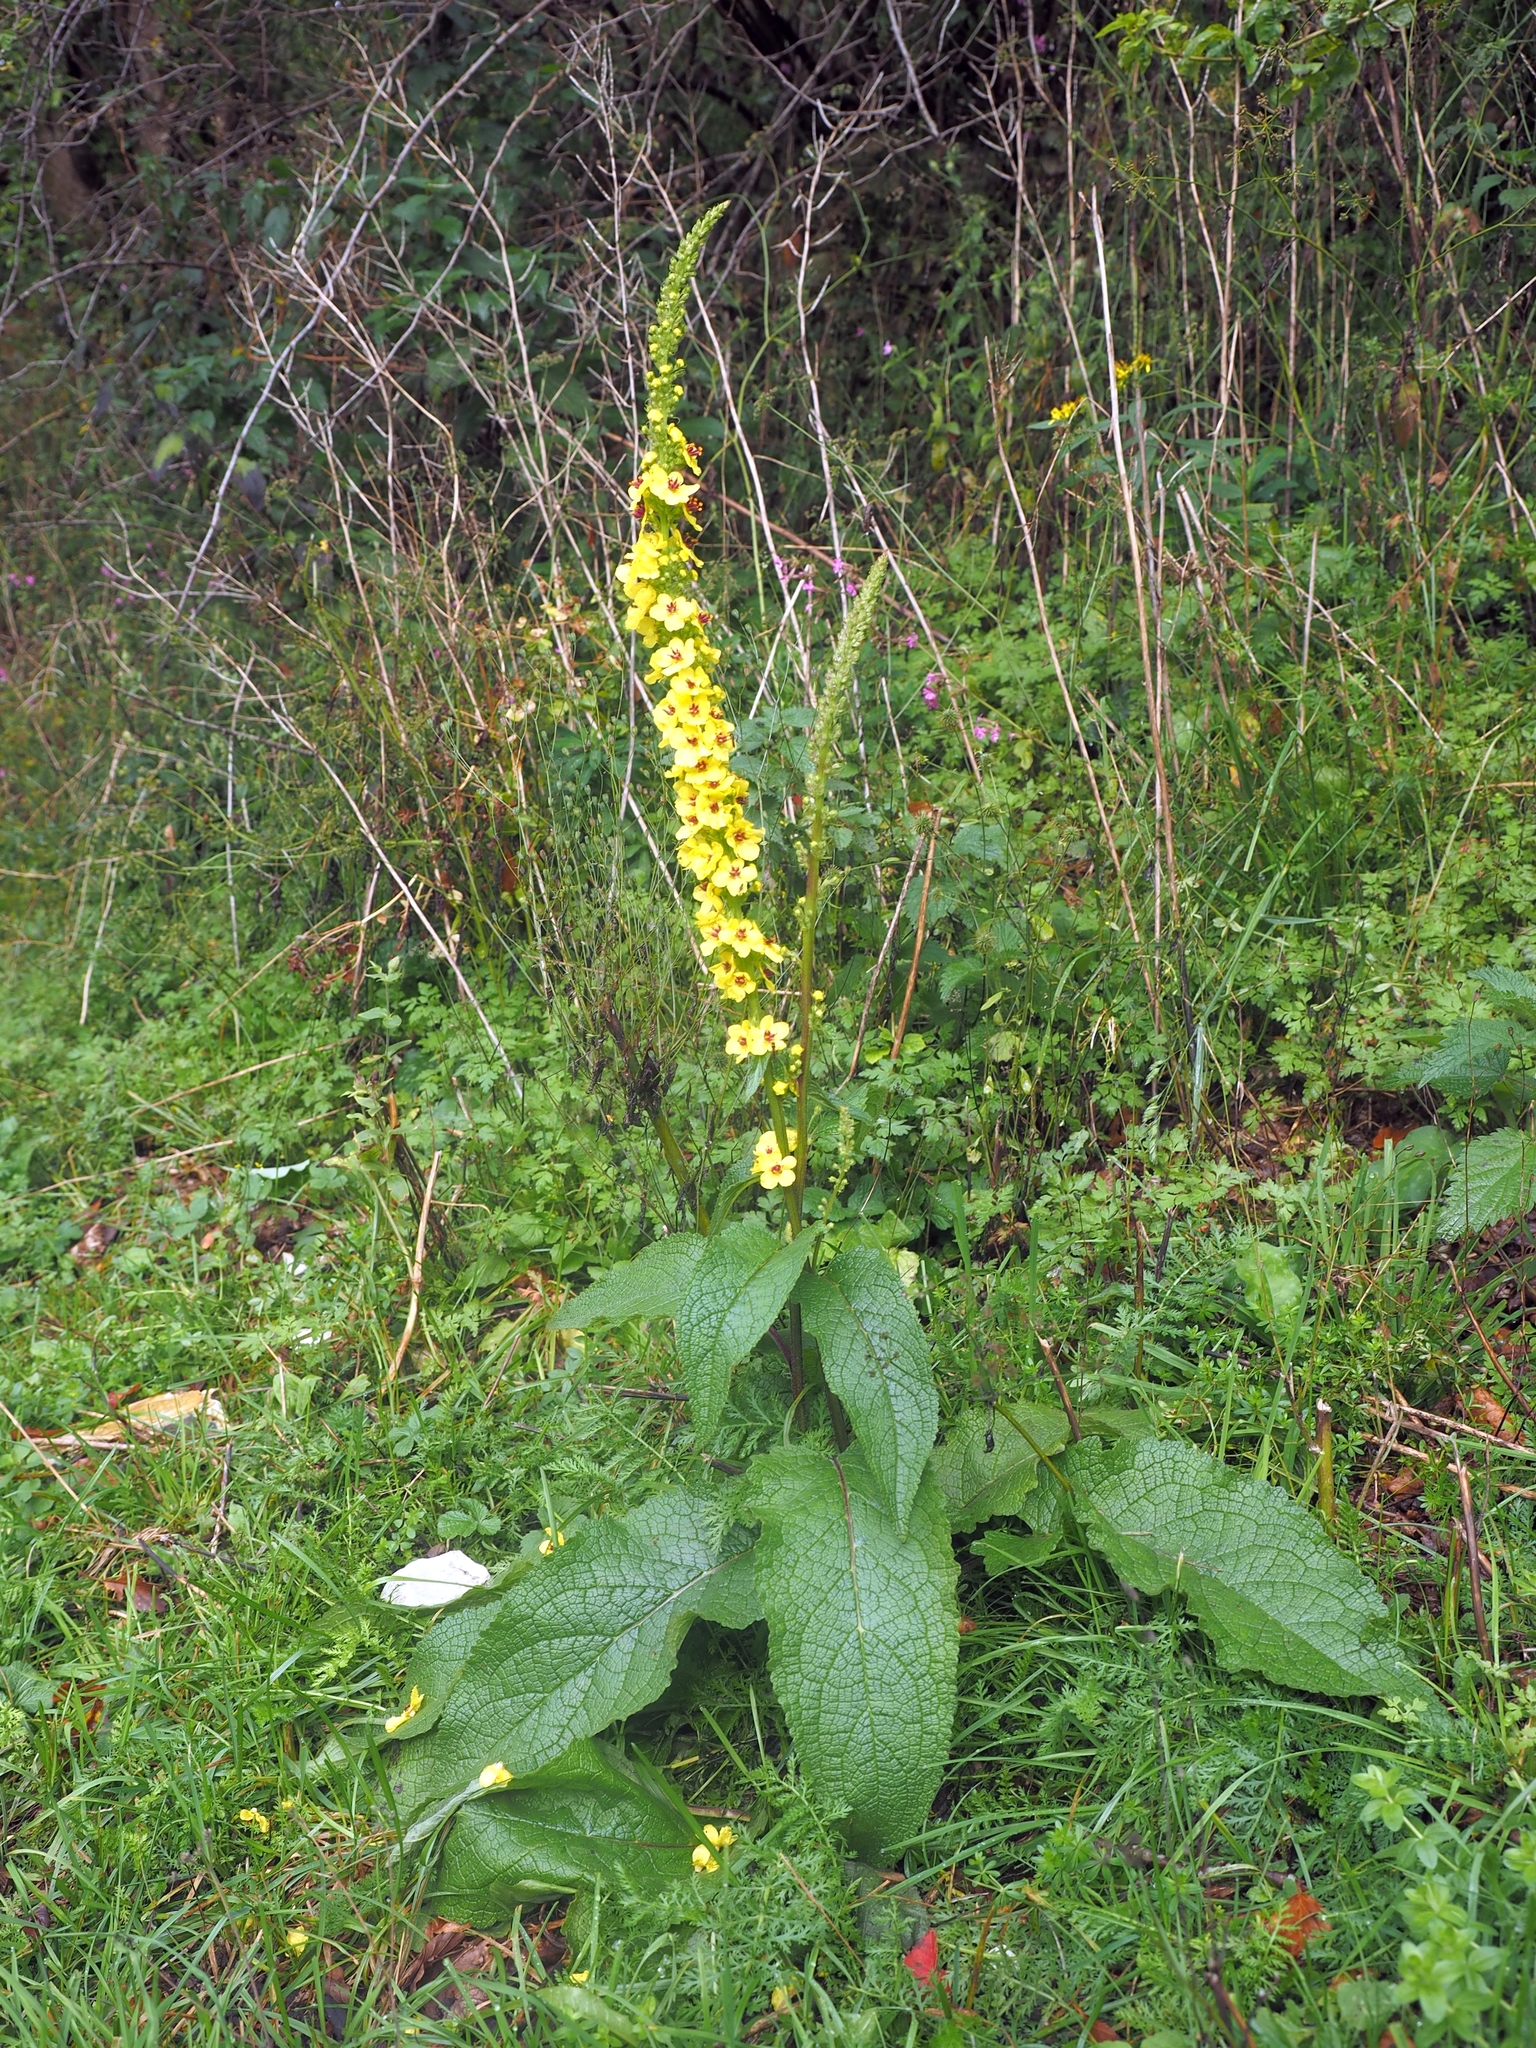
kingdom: Plantae
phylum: Tracheophyta
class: Magnoliopsida
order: Lamiales
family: Scrophulariaceae
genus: Verbascum
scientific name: Verbascum alpinum
